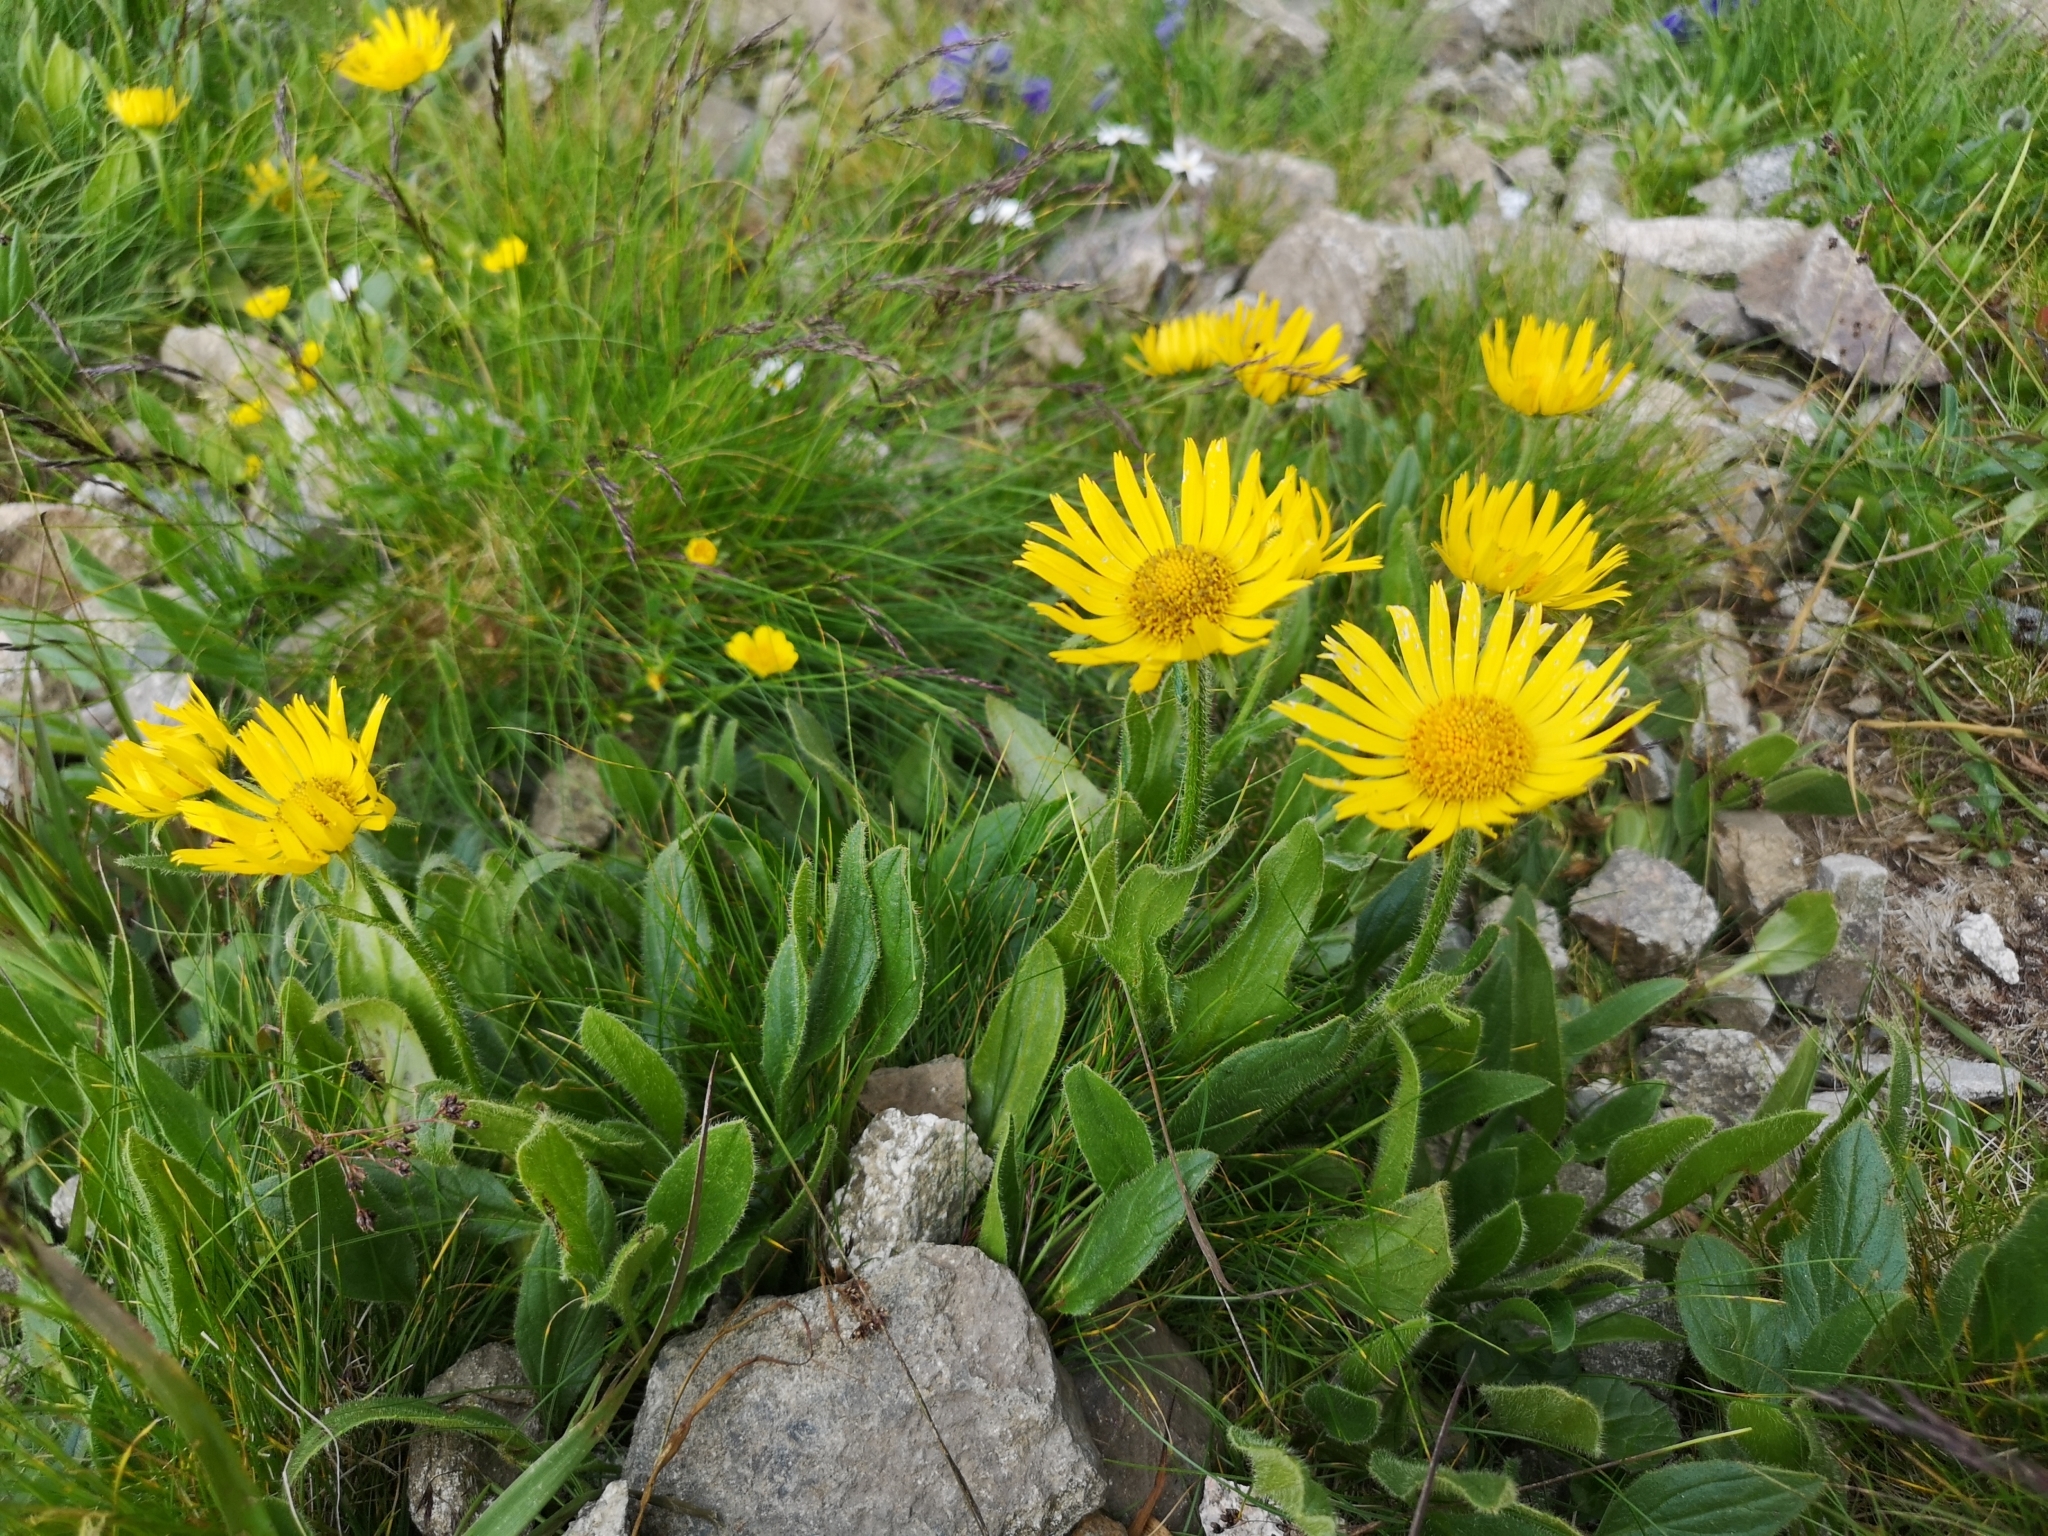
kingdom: Plantae
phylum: Tracheophyta
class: Magnoliopsida
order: Asterales
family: Asteraceae
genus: Doronicum
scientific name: Doronicum clusii
